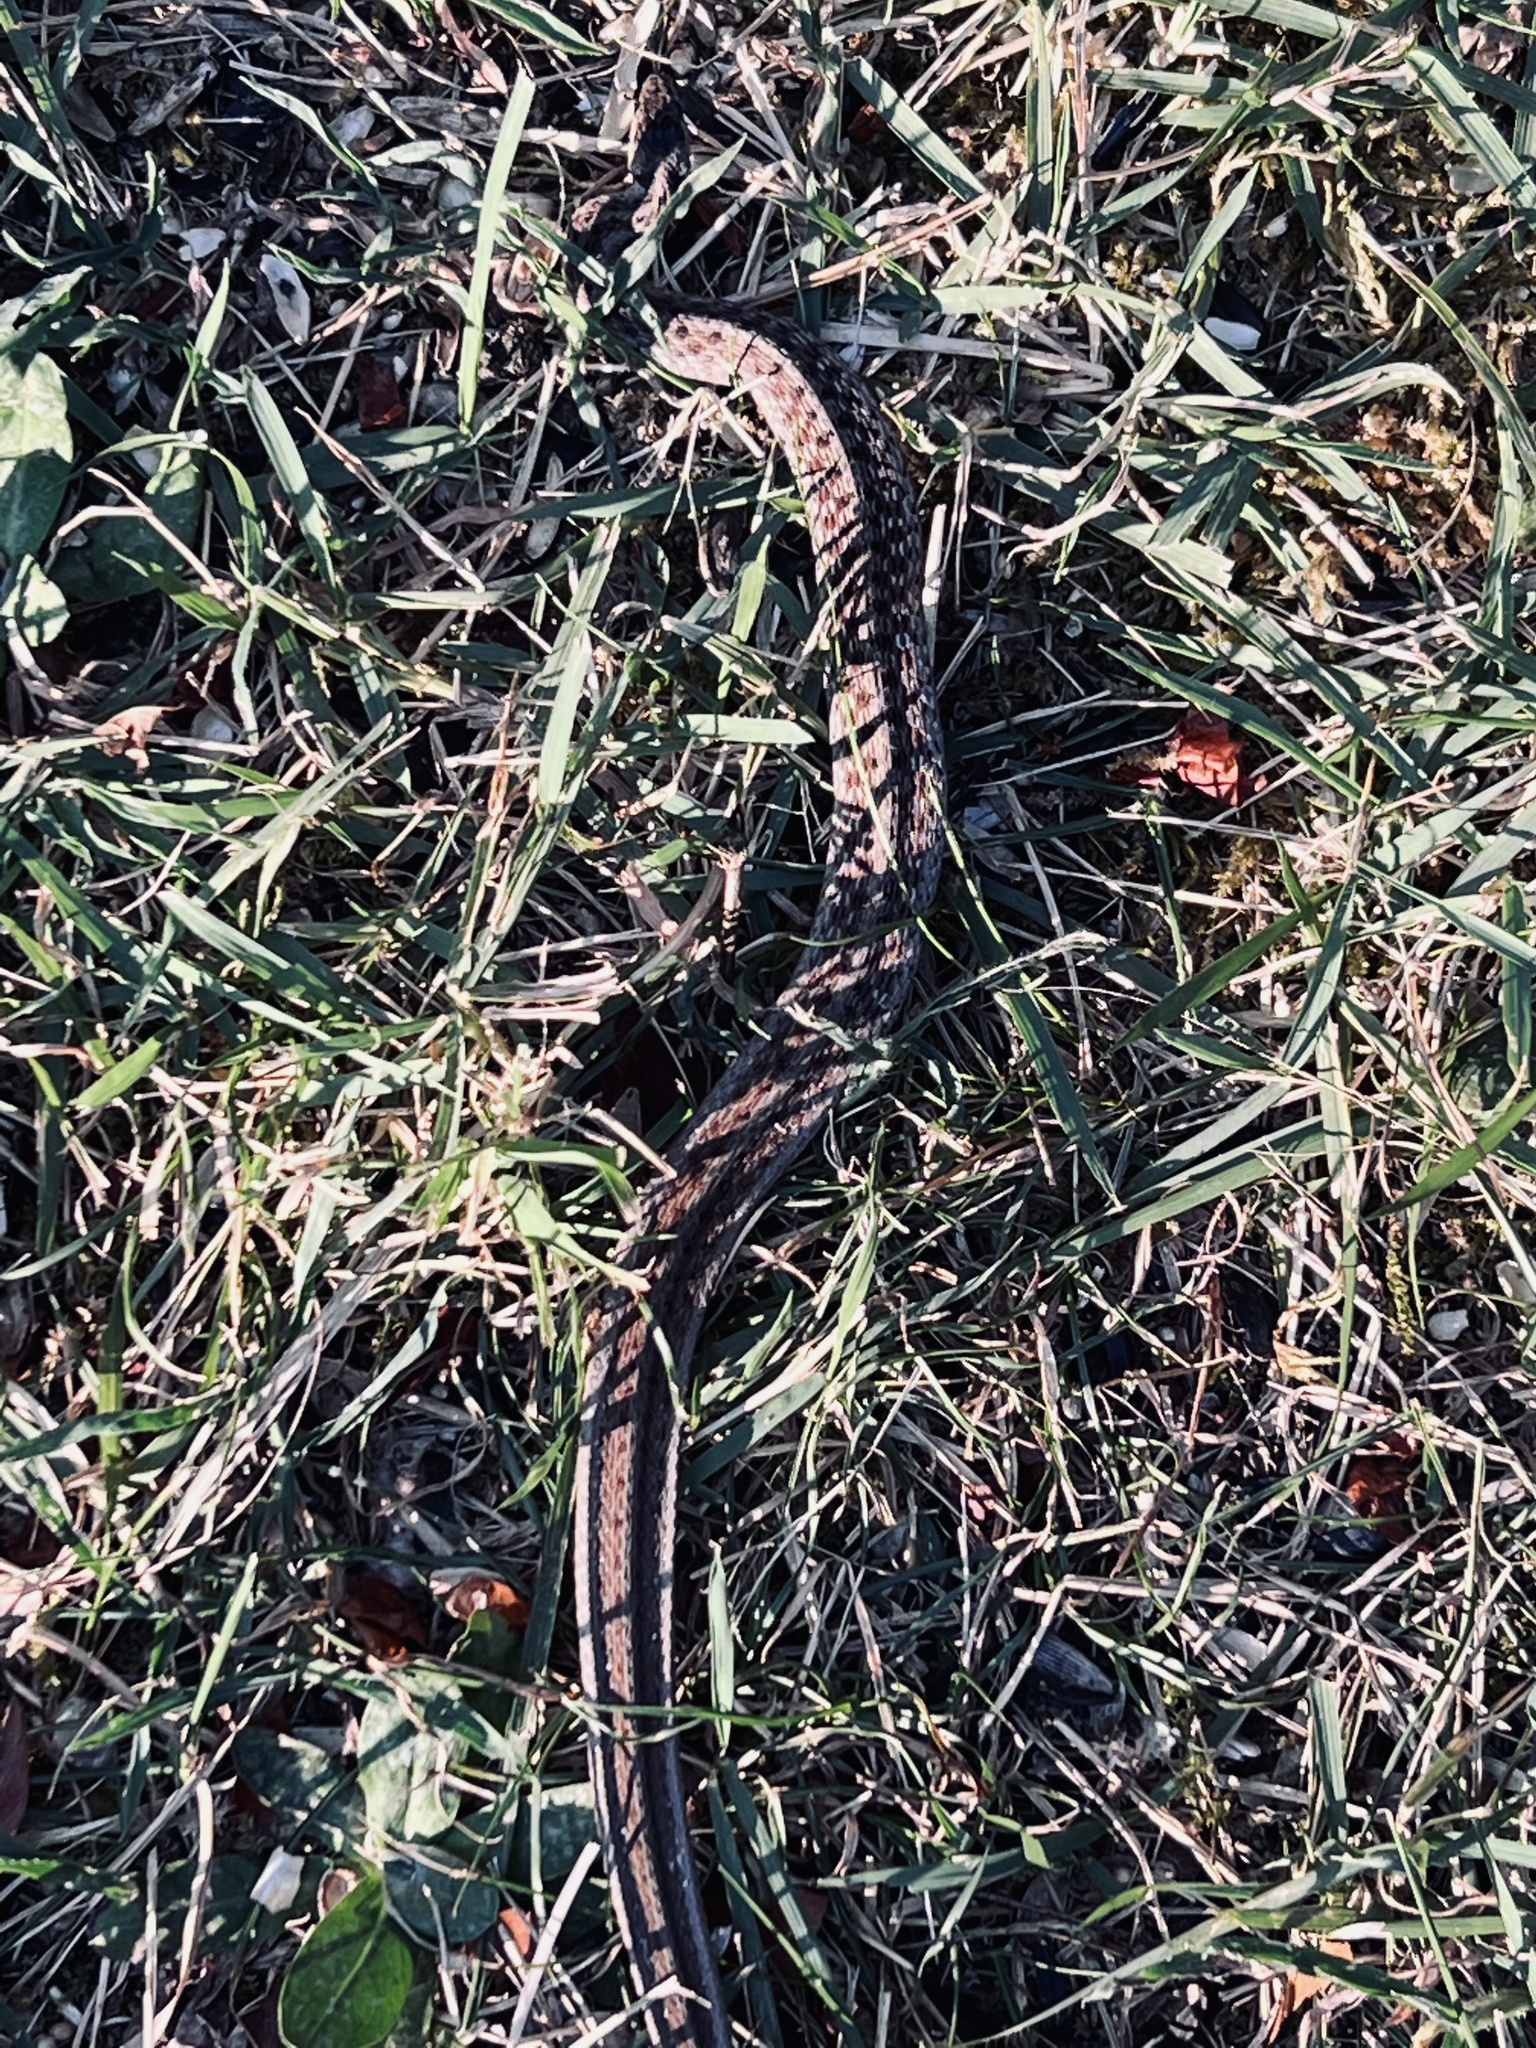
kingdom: Animalia
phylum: Chordata
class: Squamata
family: Colubridae
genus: Storeria
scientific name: Storeria dekayi
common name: (dekay’s) brown snake
